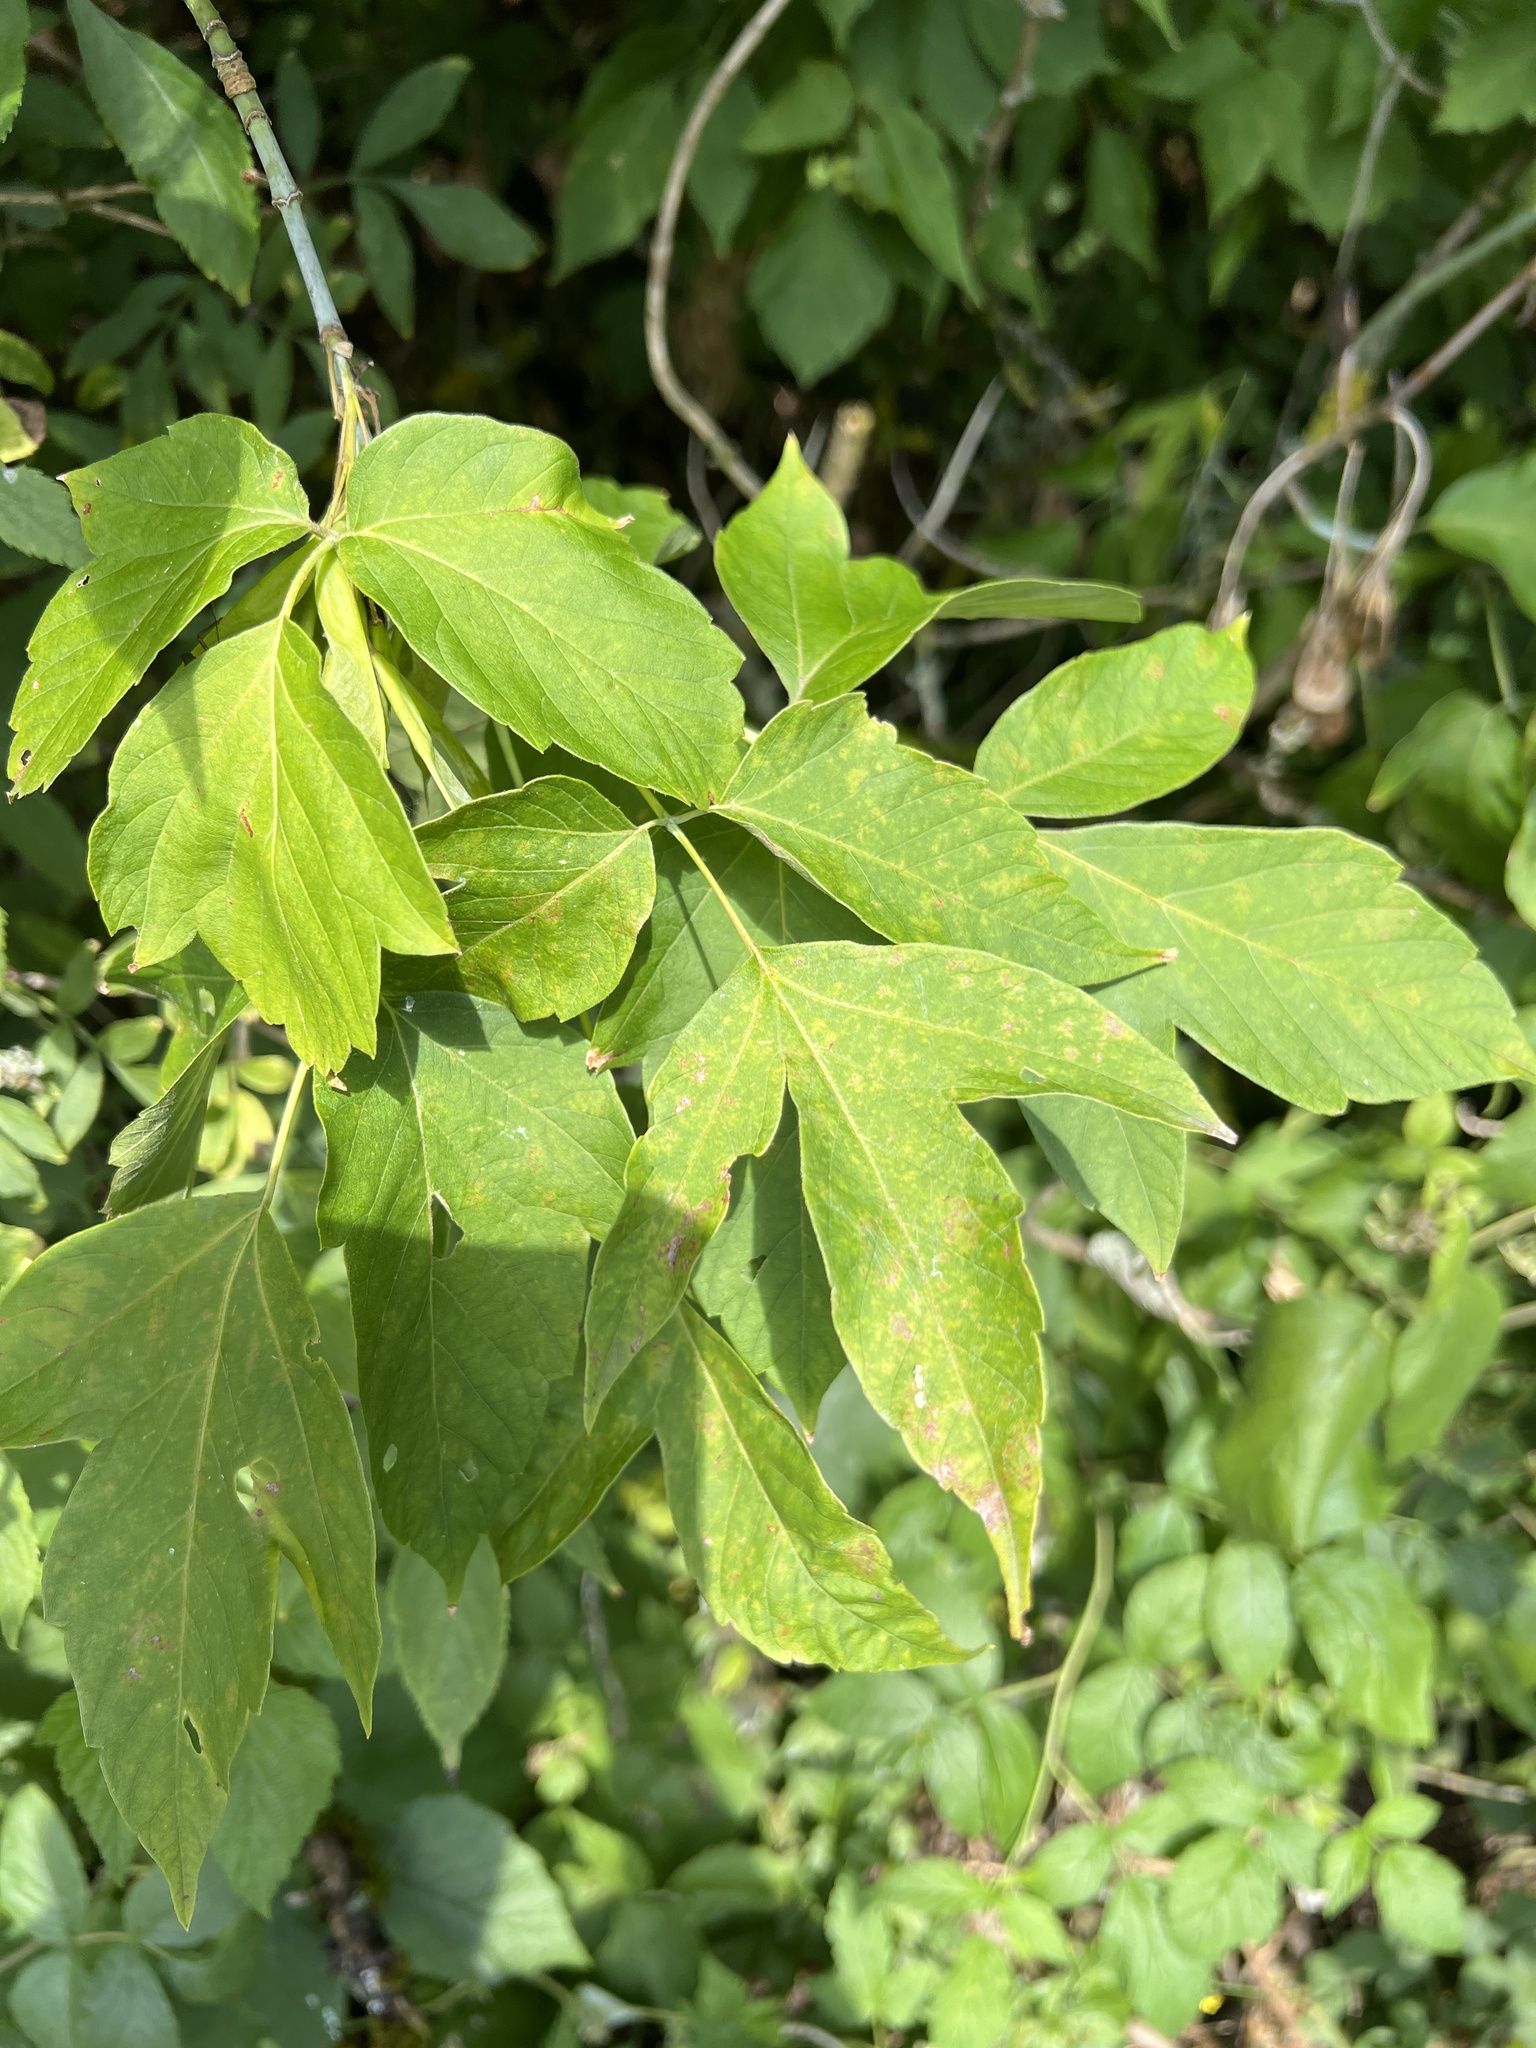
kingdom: Plantae
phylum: Tracheophyta
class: Magnoliopsida
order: Sapindales
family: Sapindaceae
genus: Acer
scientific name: Acer negundo
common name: Ashleaf maple
